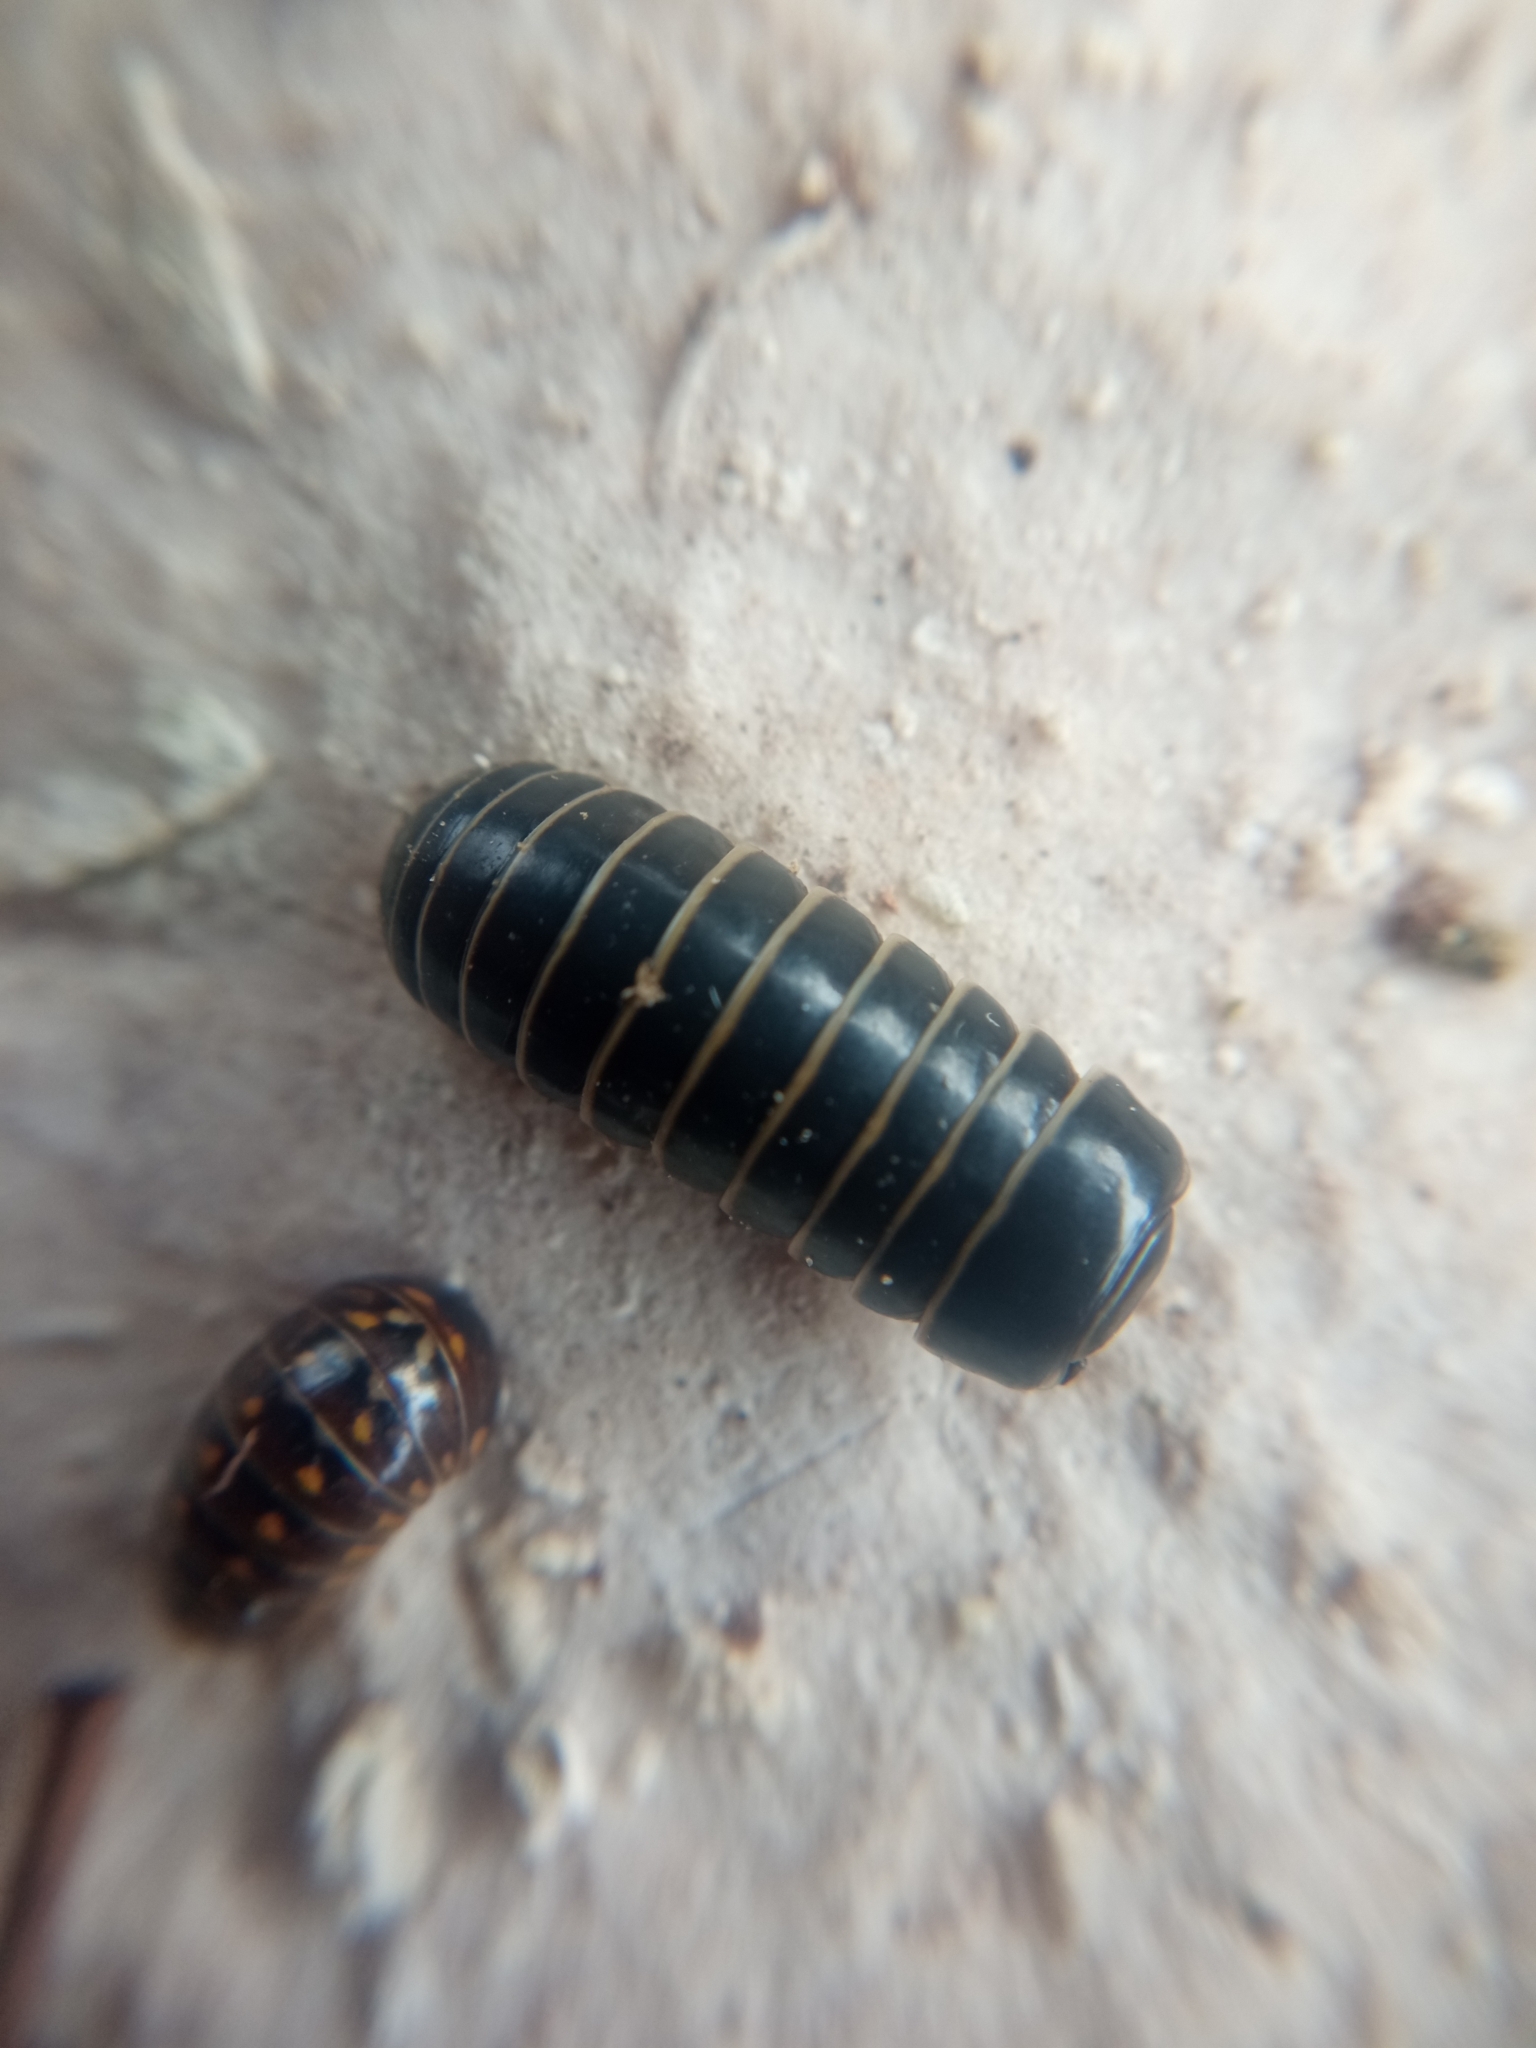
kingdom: Animalia
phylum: Arthropoda
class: Diplopoda
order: Glomerida
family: Glomeridae
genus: Glomeris
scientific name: Glomeris marginata
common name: Bordered pill millipede
